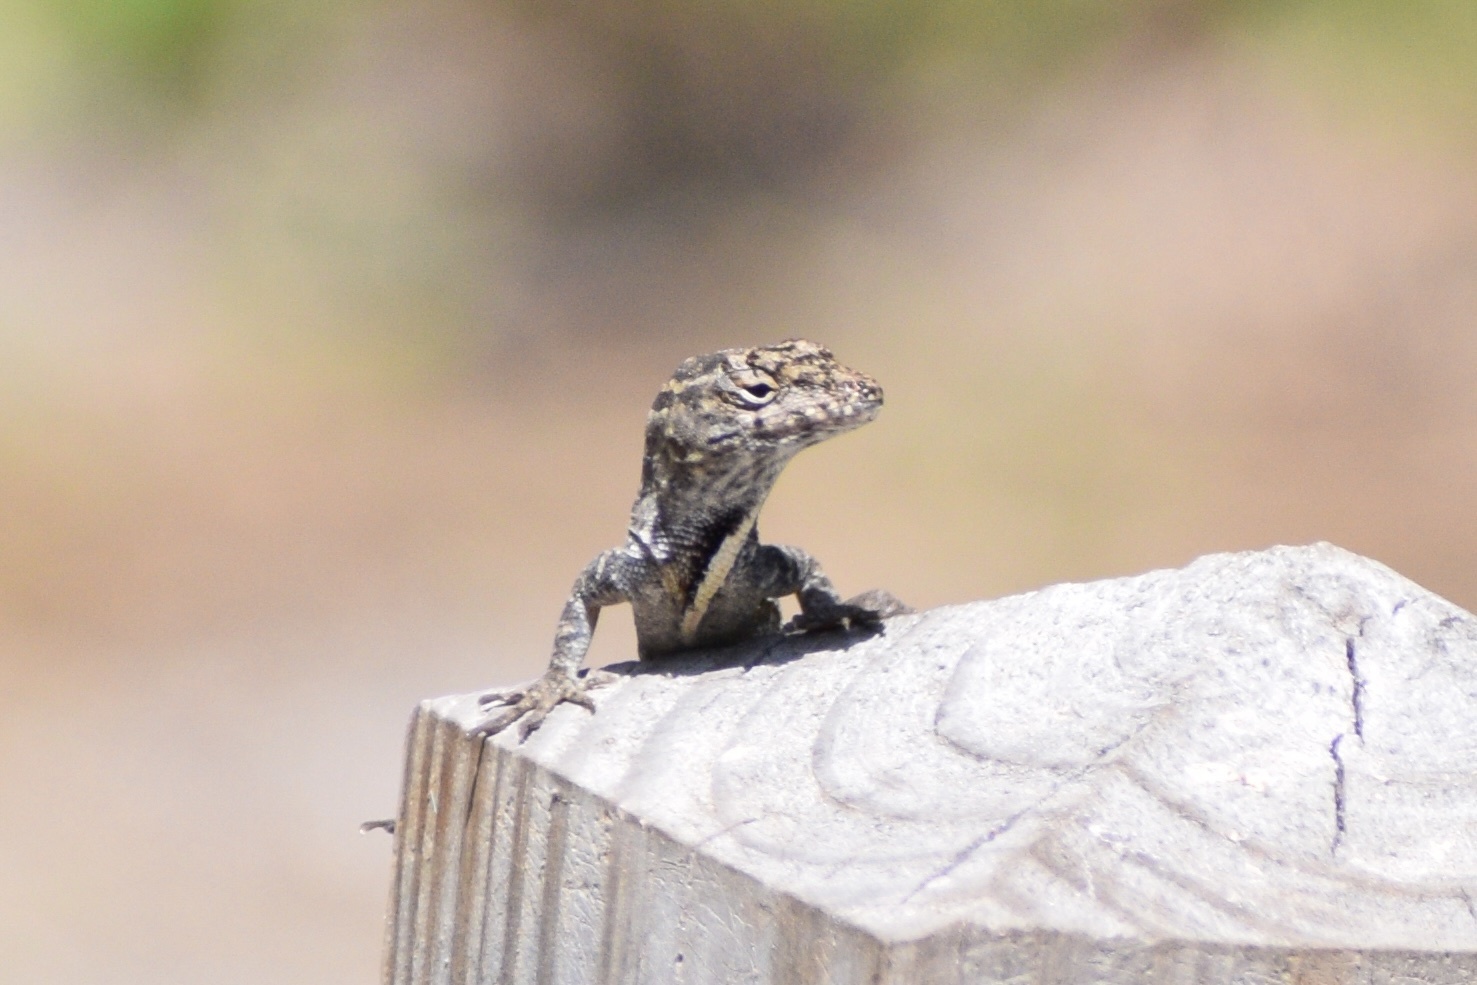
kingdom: Animalia
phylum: Chordata
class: Squamata
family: Dactyloidae
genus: Anolis
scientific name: Anolis sagrei
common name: Brown anole
